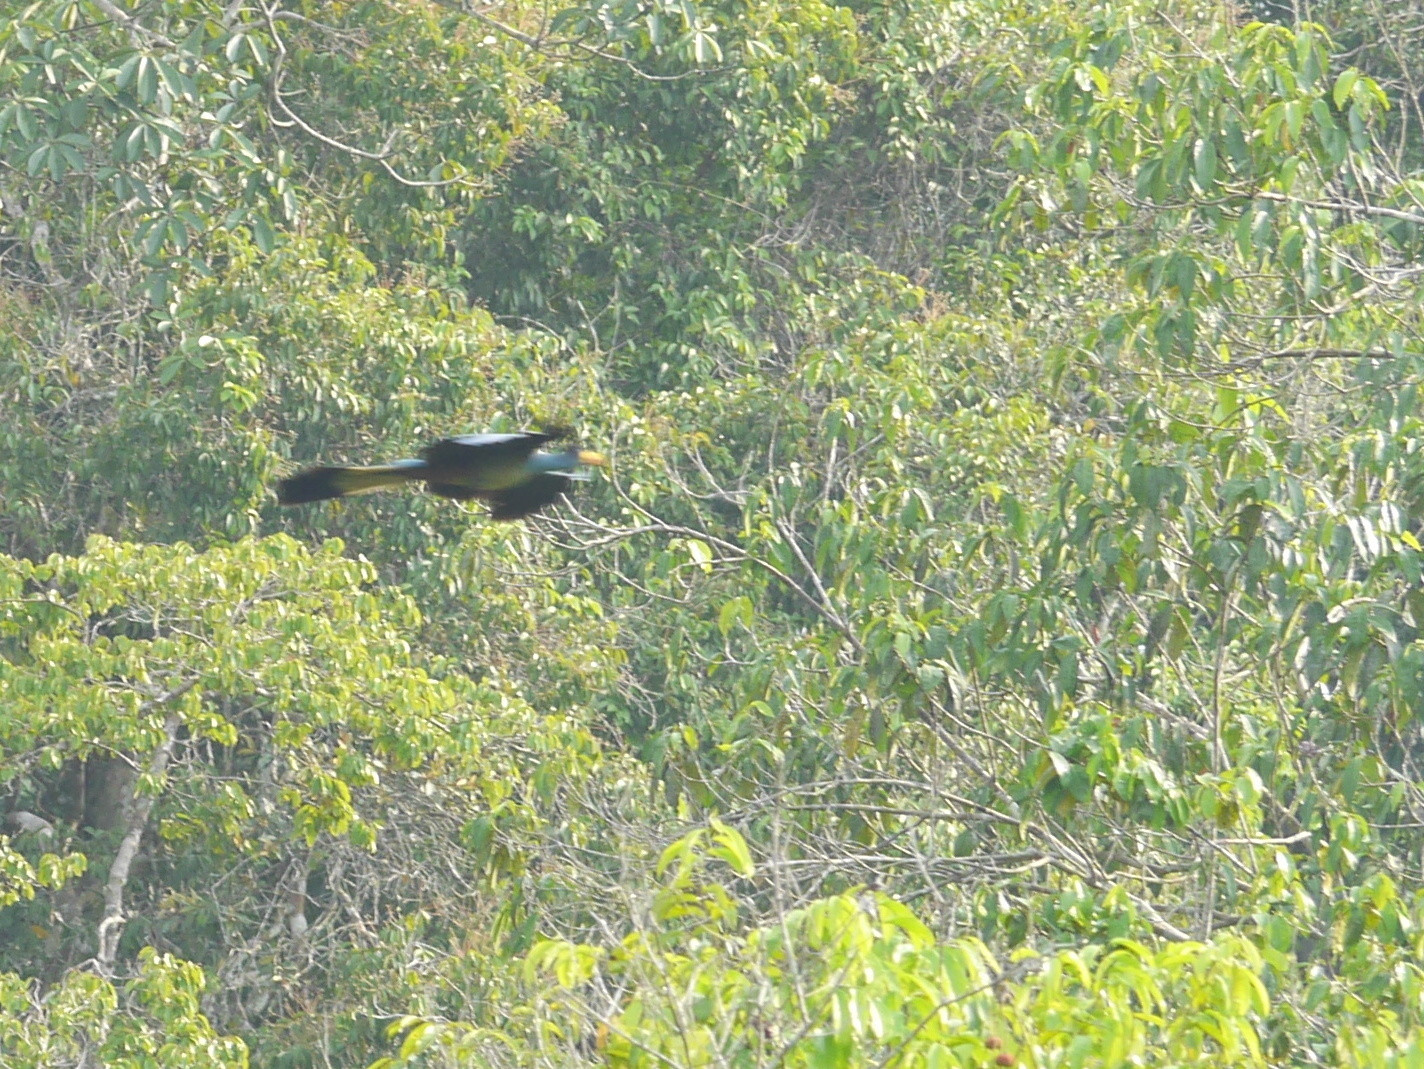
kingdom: Animalia
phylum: Chordata
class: Aves
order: Musophagiformes
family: Musophagidae
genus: Corythaeola
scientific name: Corythaeola cristata
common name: Great blue turaco
